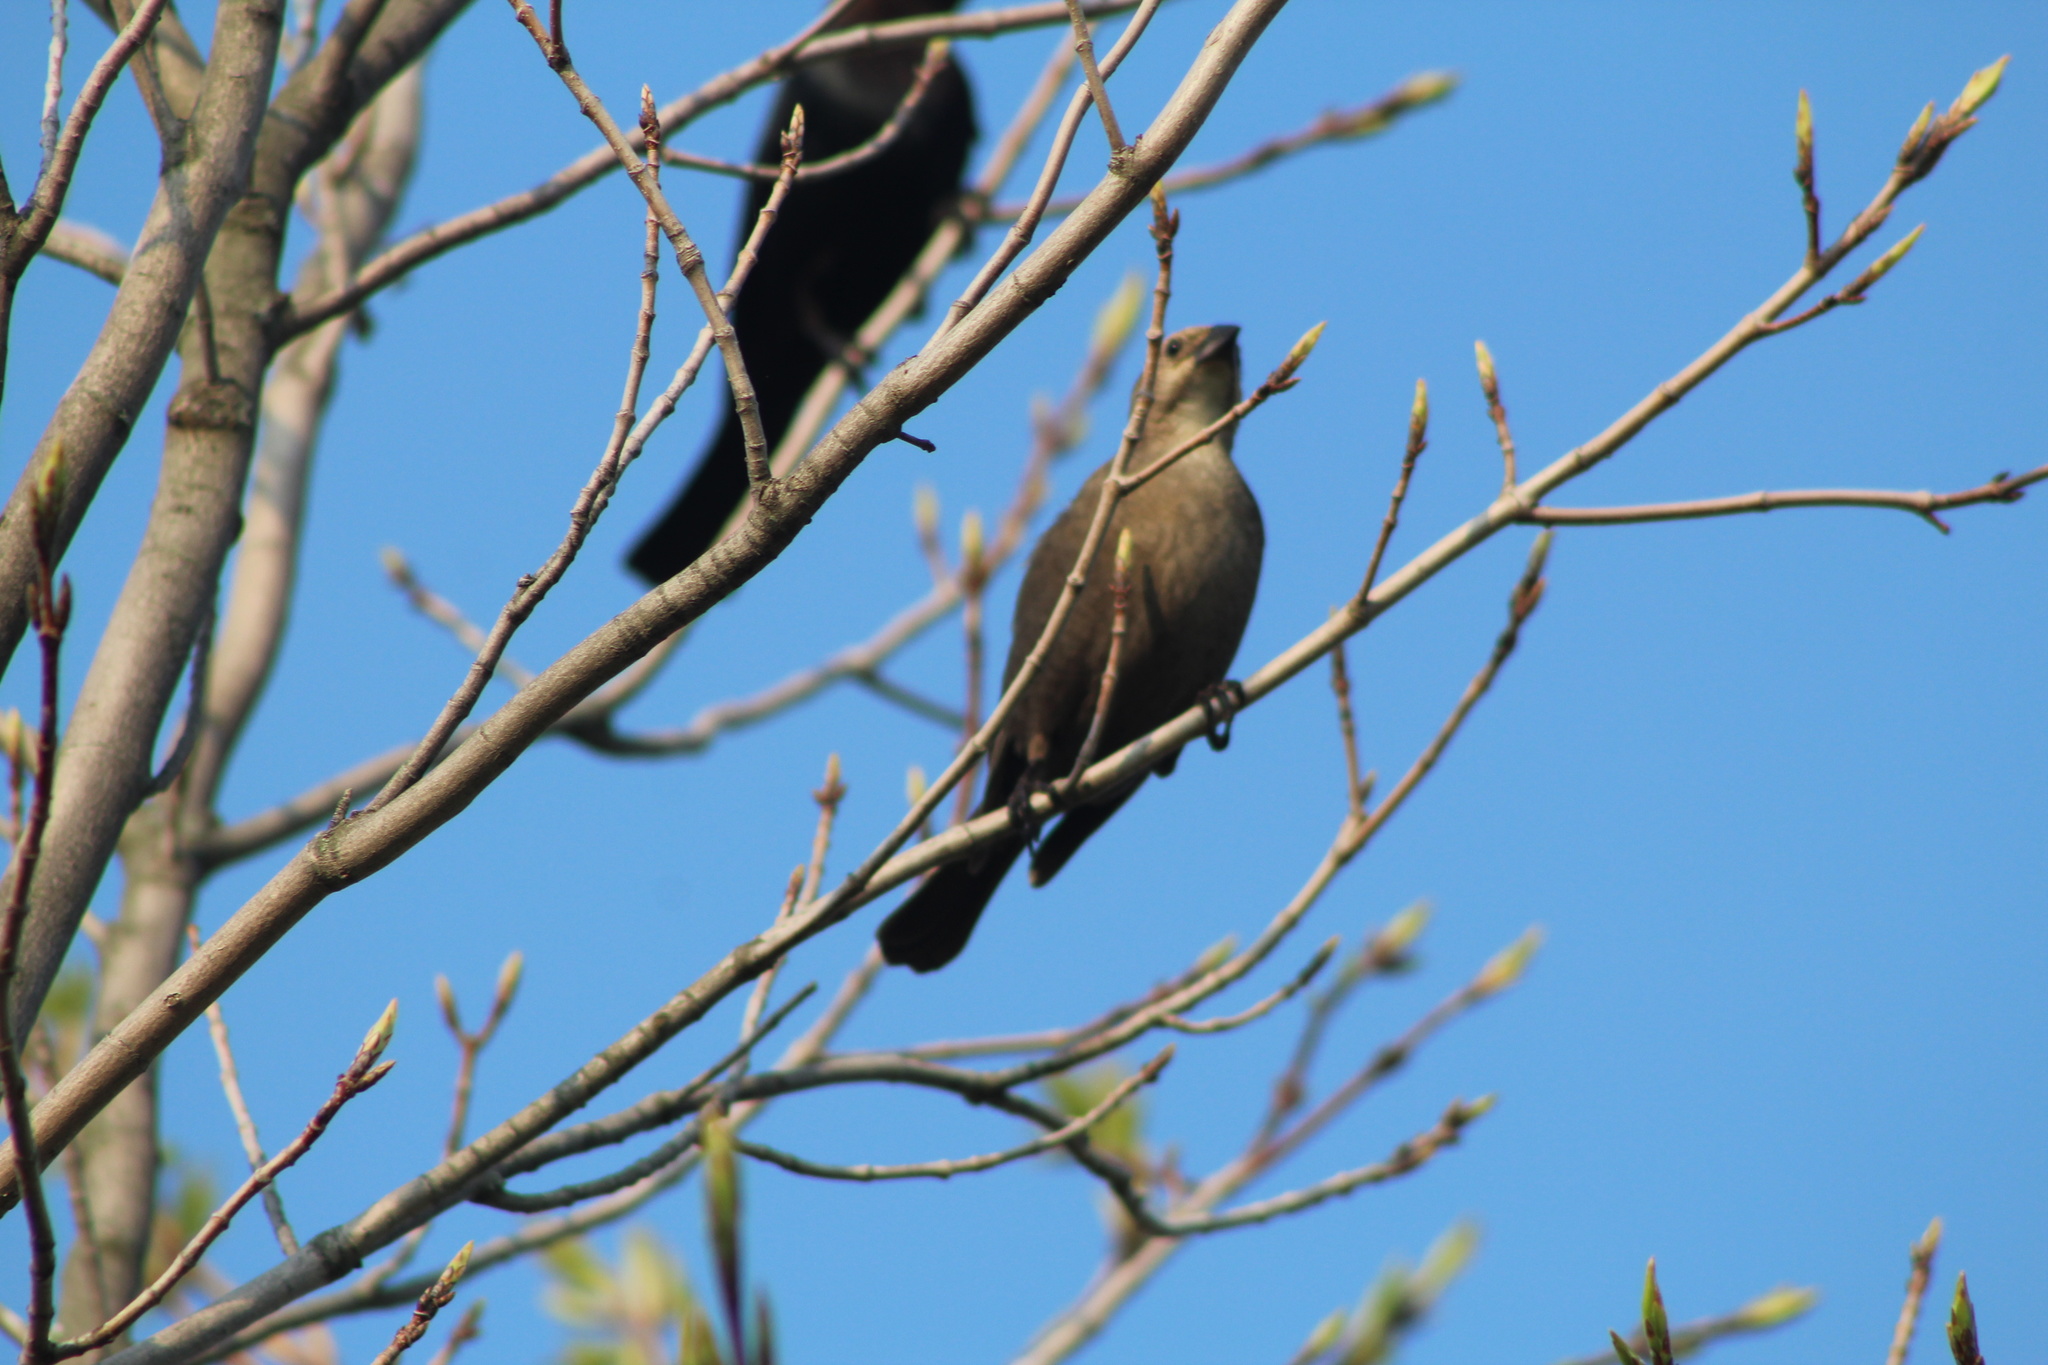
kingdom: Animalia
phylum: Chordata
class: Aves
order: Passeriformes
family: Icteridae
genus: Molothrus
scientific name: Molothrus ater
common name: Brown-headed cowbird
